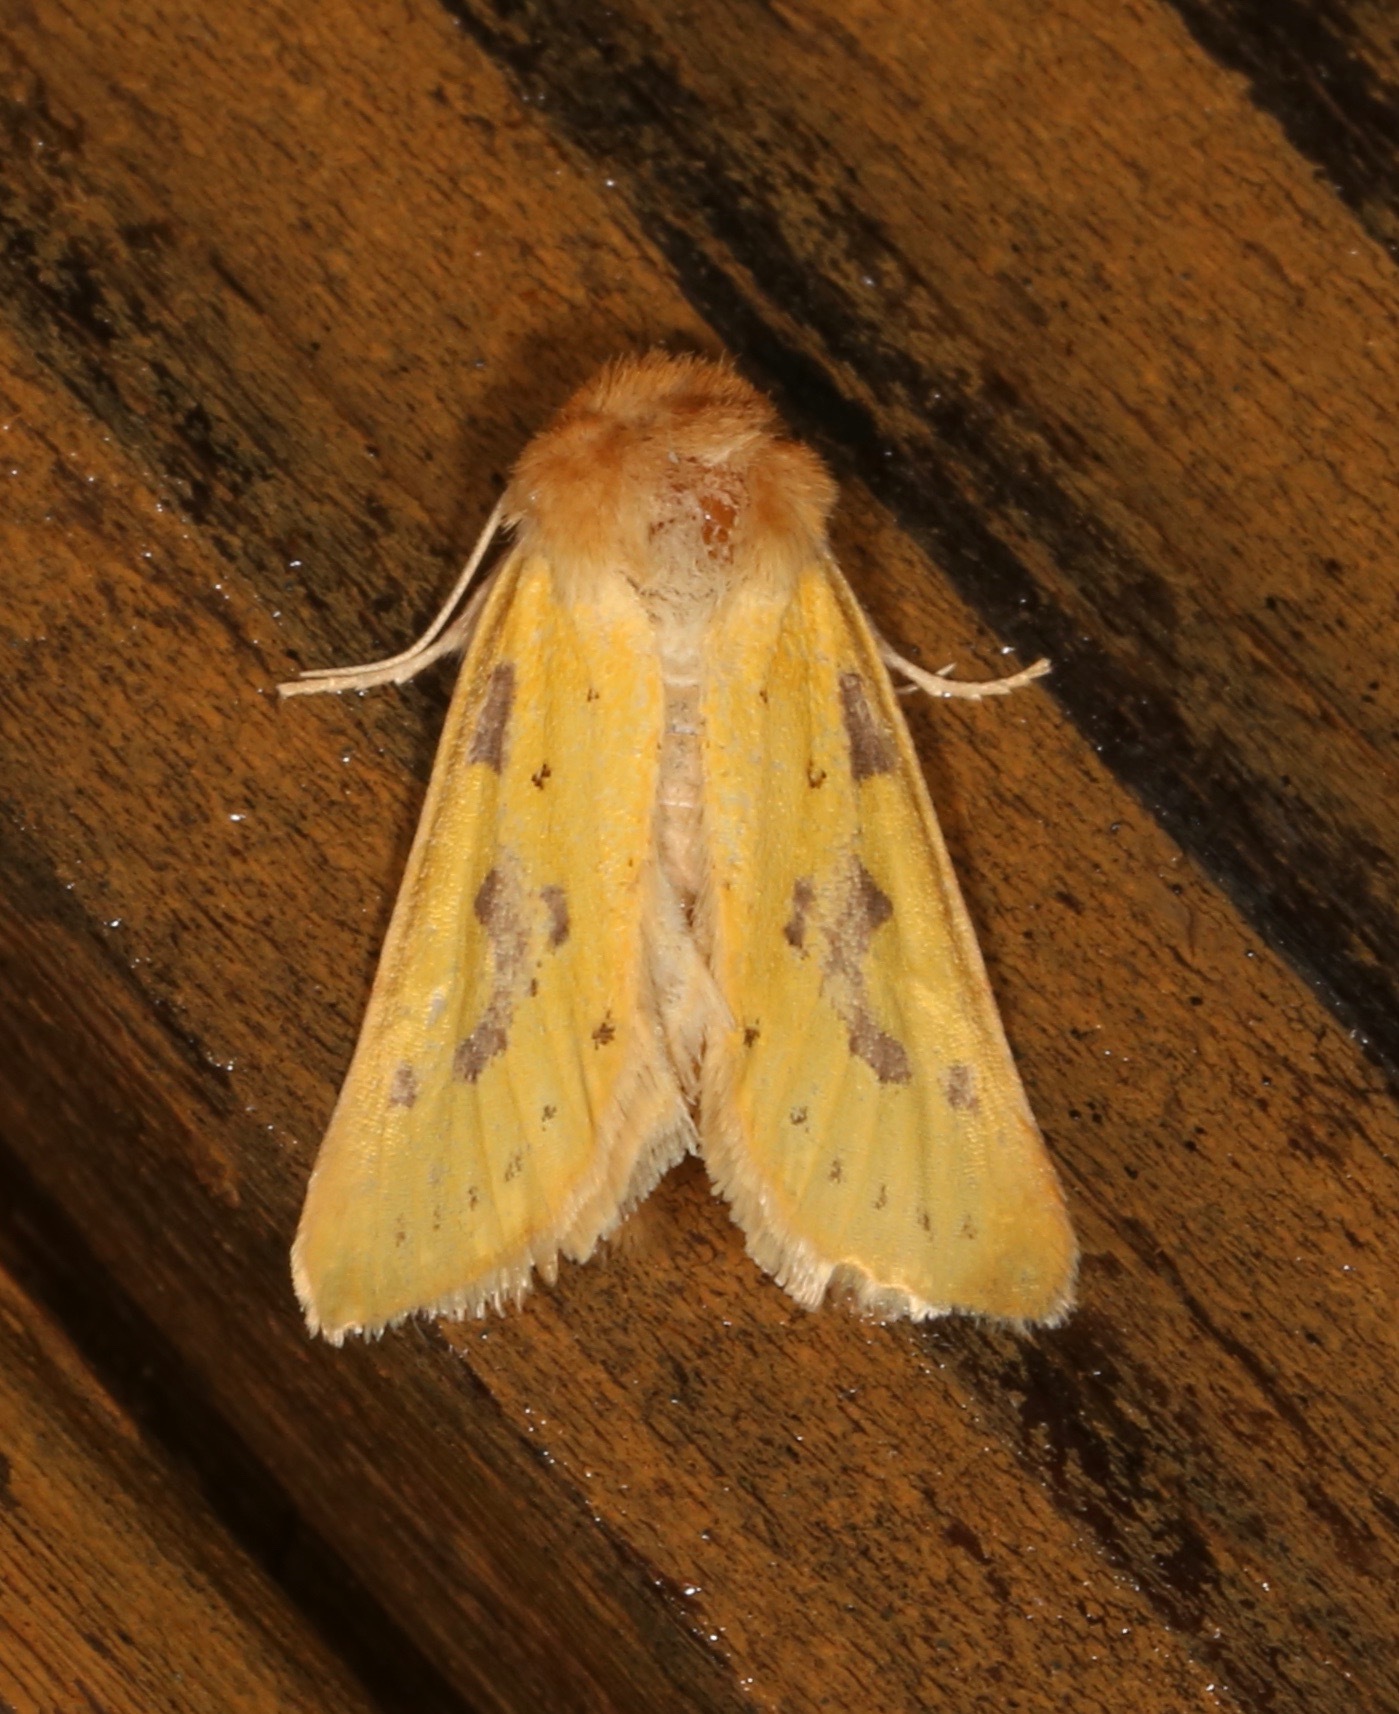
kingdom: Animalia
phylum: Arthropoda
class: Insecta
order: Lepidoptera
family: Noctuidae
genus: Nocloa
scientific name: Nocloa nanata
